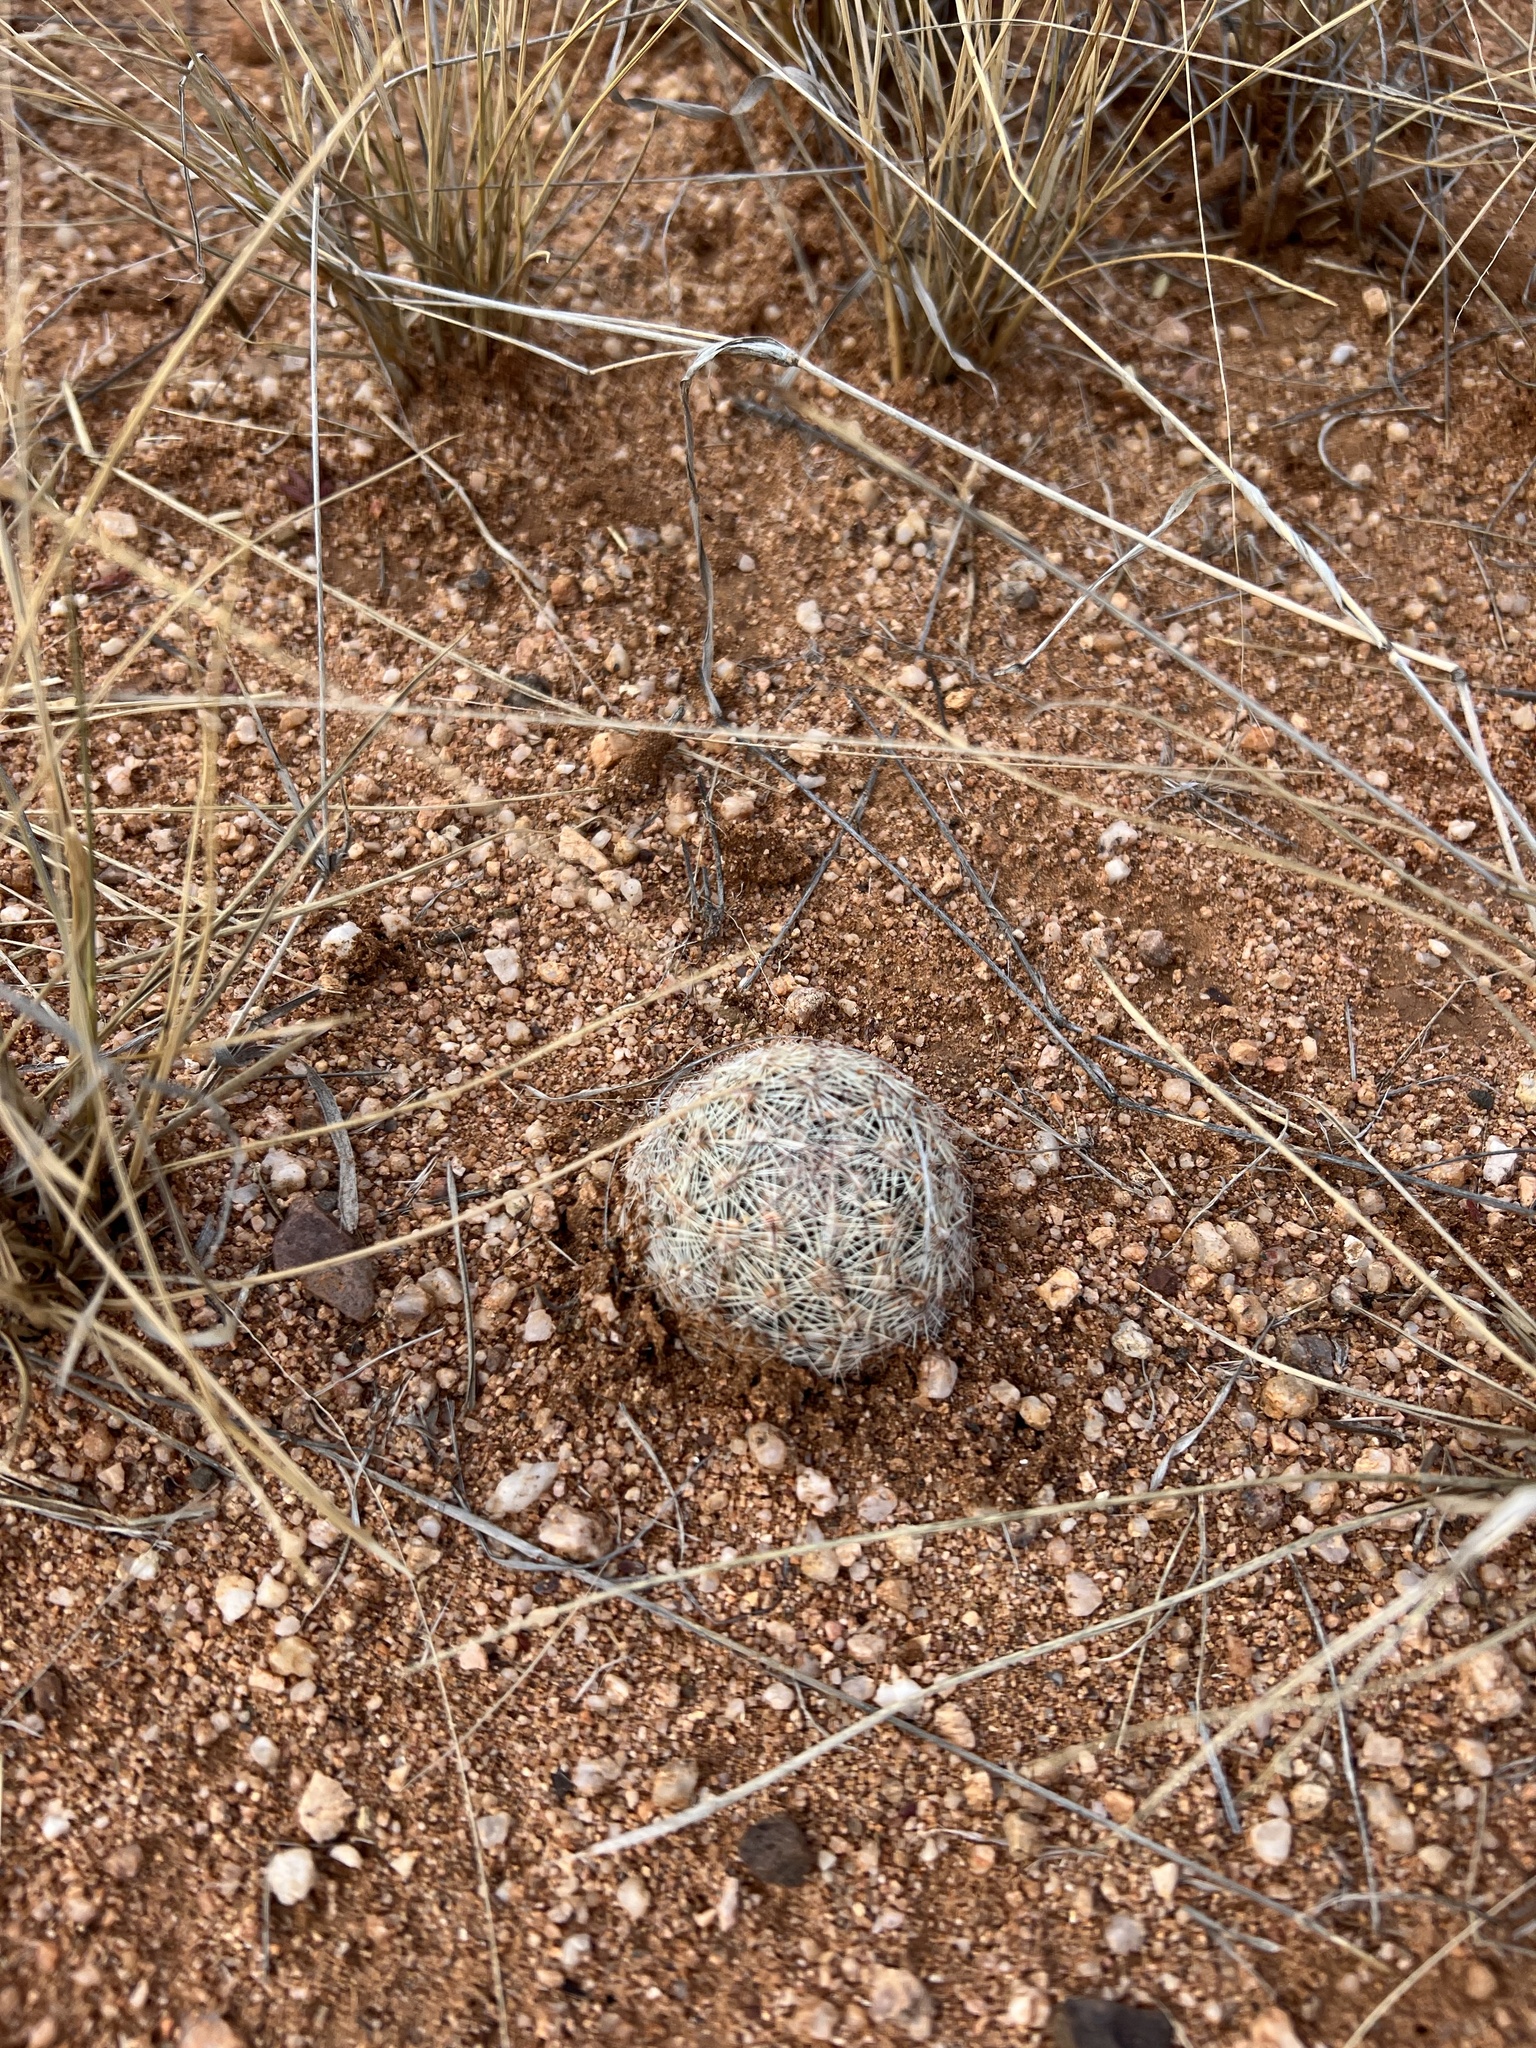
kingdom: Plantae
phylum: Tracheophyta
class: Magnoliopsida
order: Caryophyllales
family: Cactaceae
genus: Pelecyphora
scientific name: Pelecyphora vivipara
